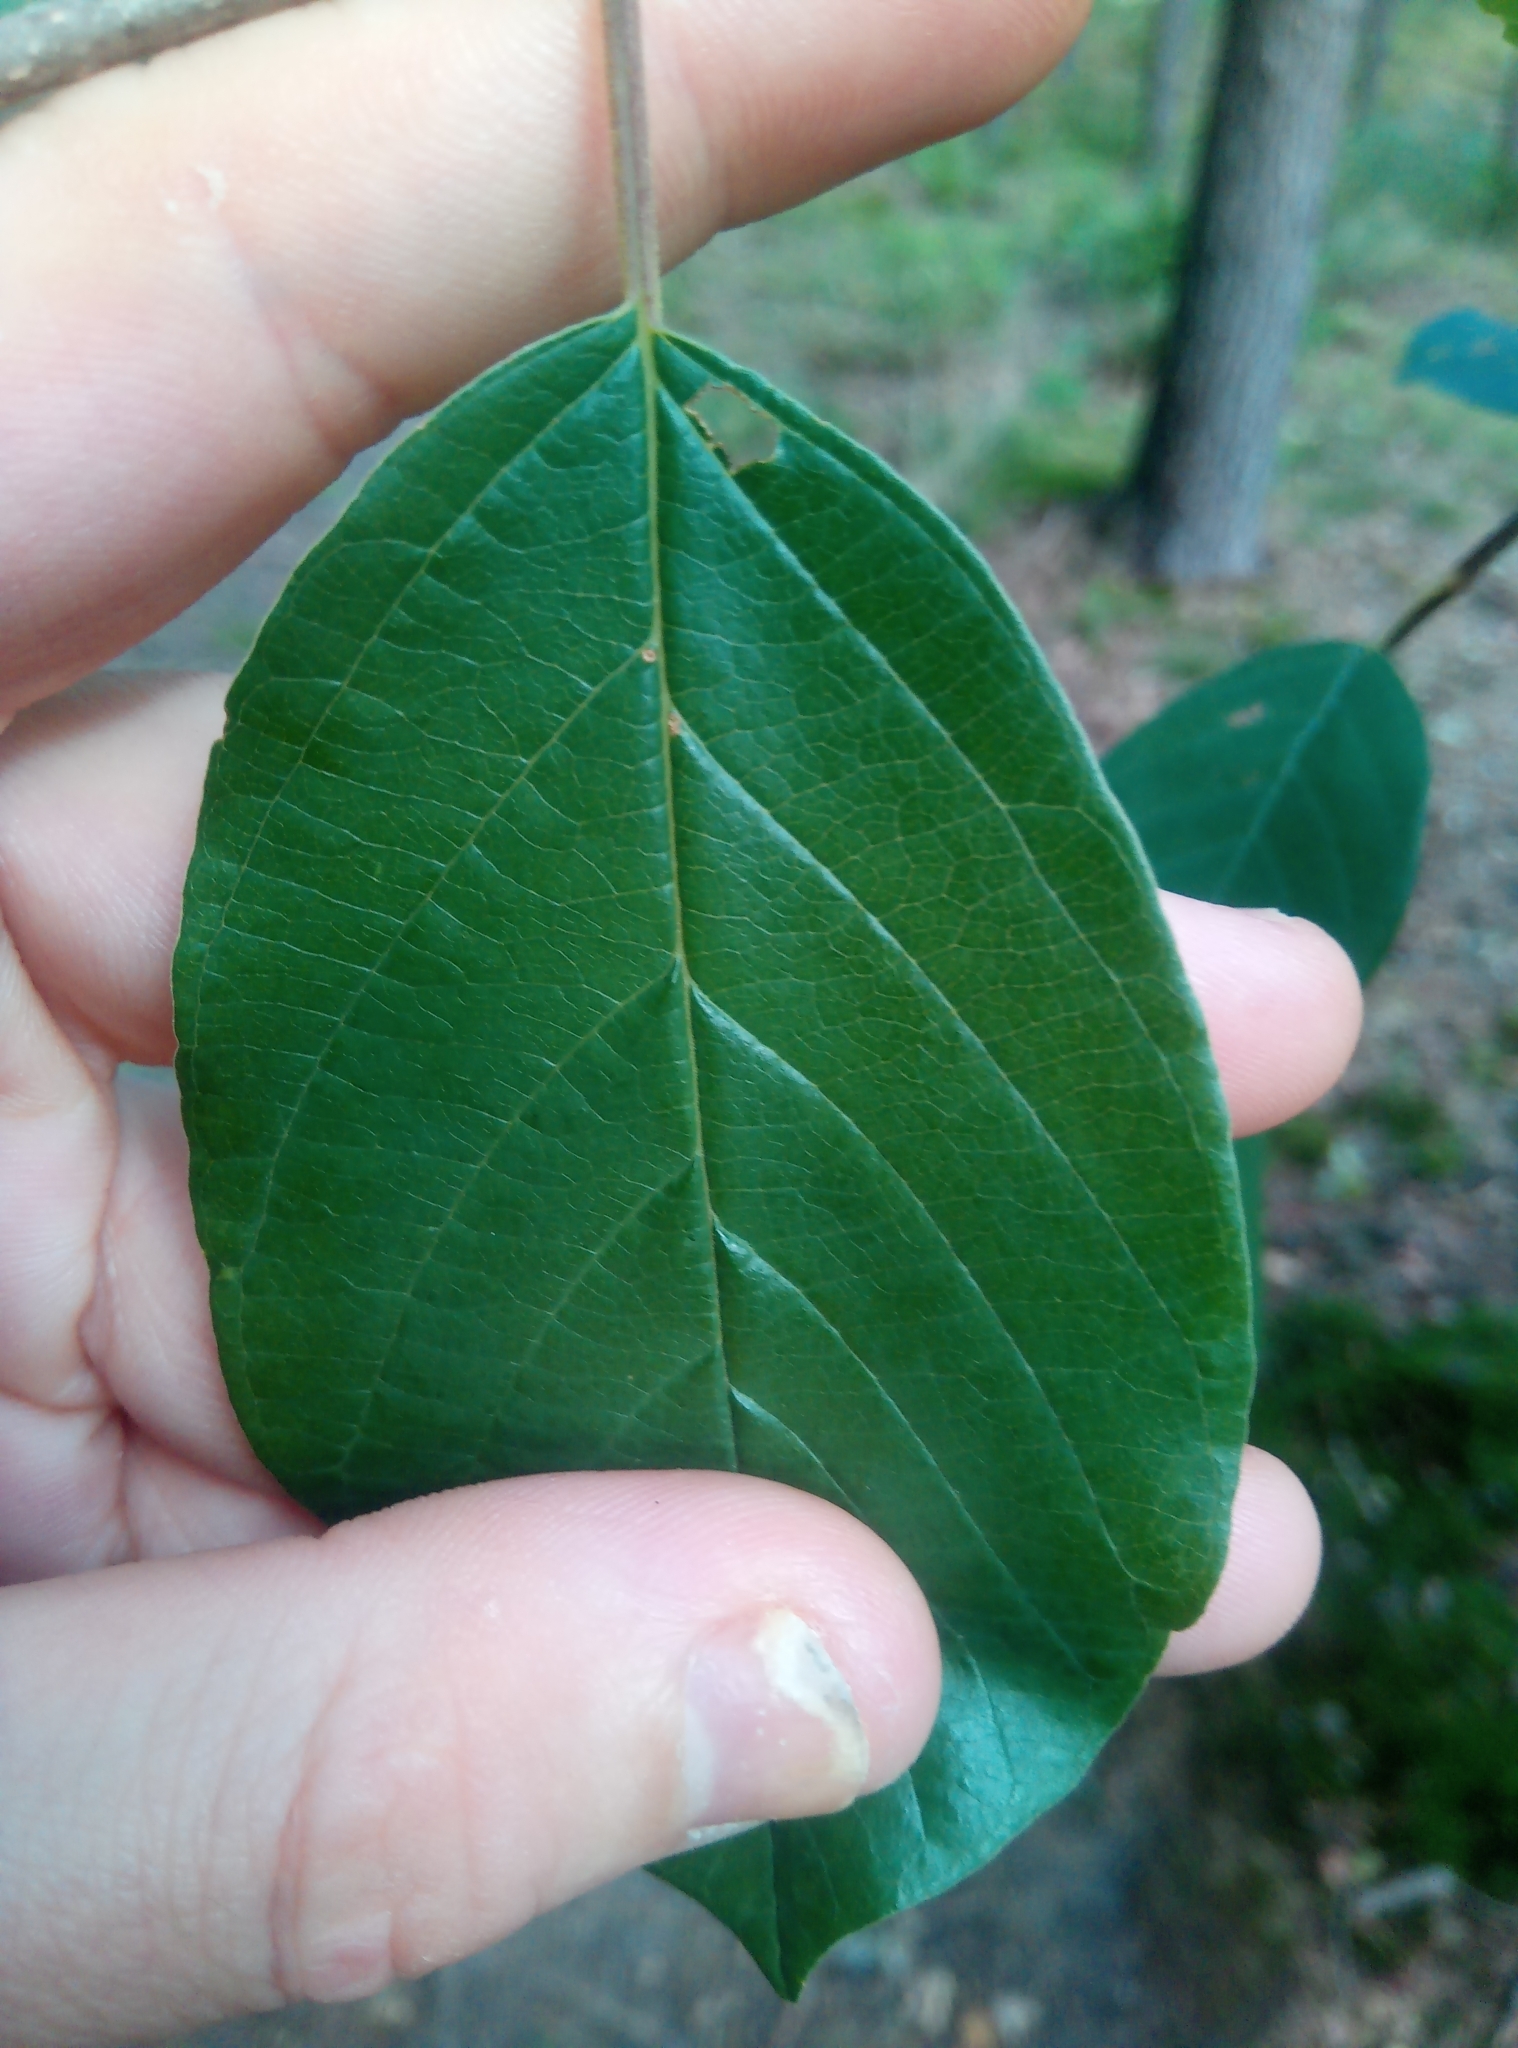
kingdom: Plantae
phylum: Tracheophyta
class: Magnoliopsida
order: Rosales
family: Rhamnaceae
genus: Frangula
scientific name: Frangula alnus
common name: Alder buckthorn
